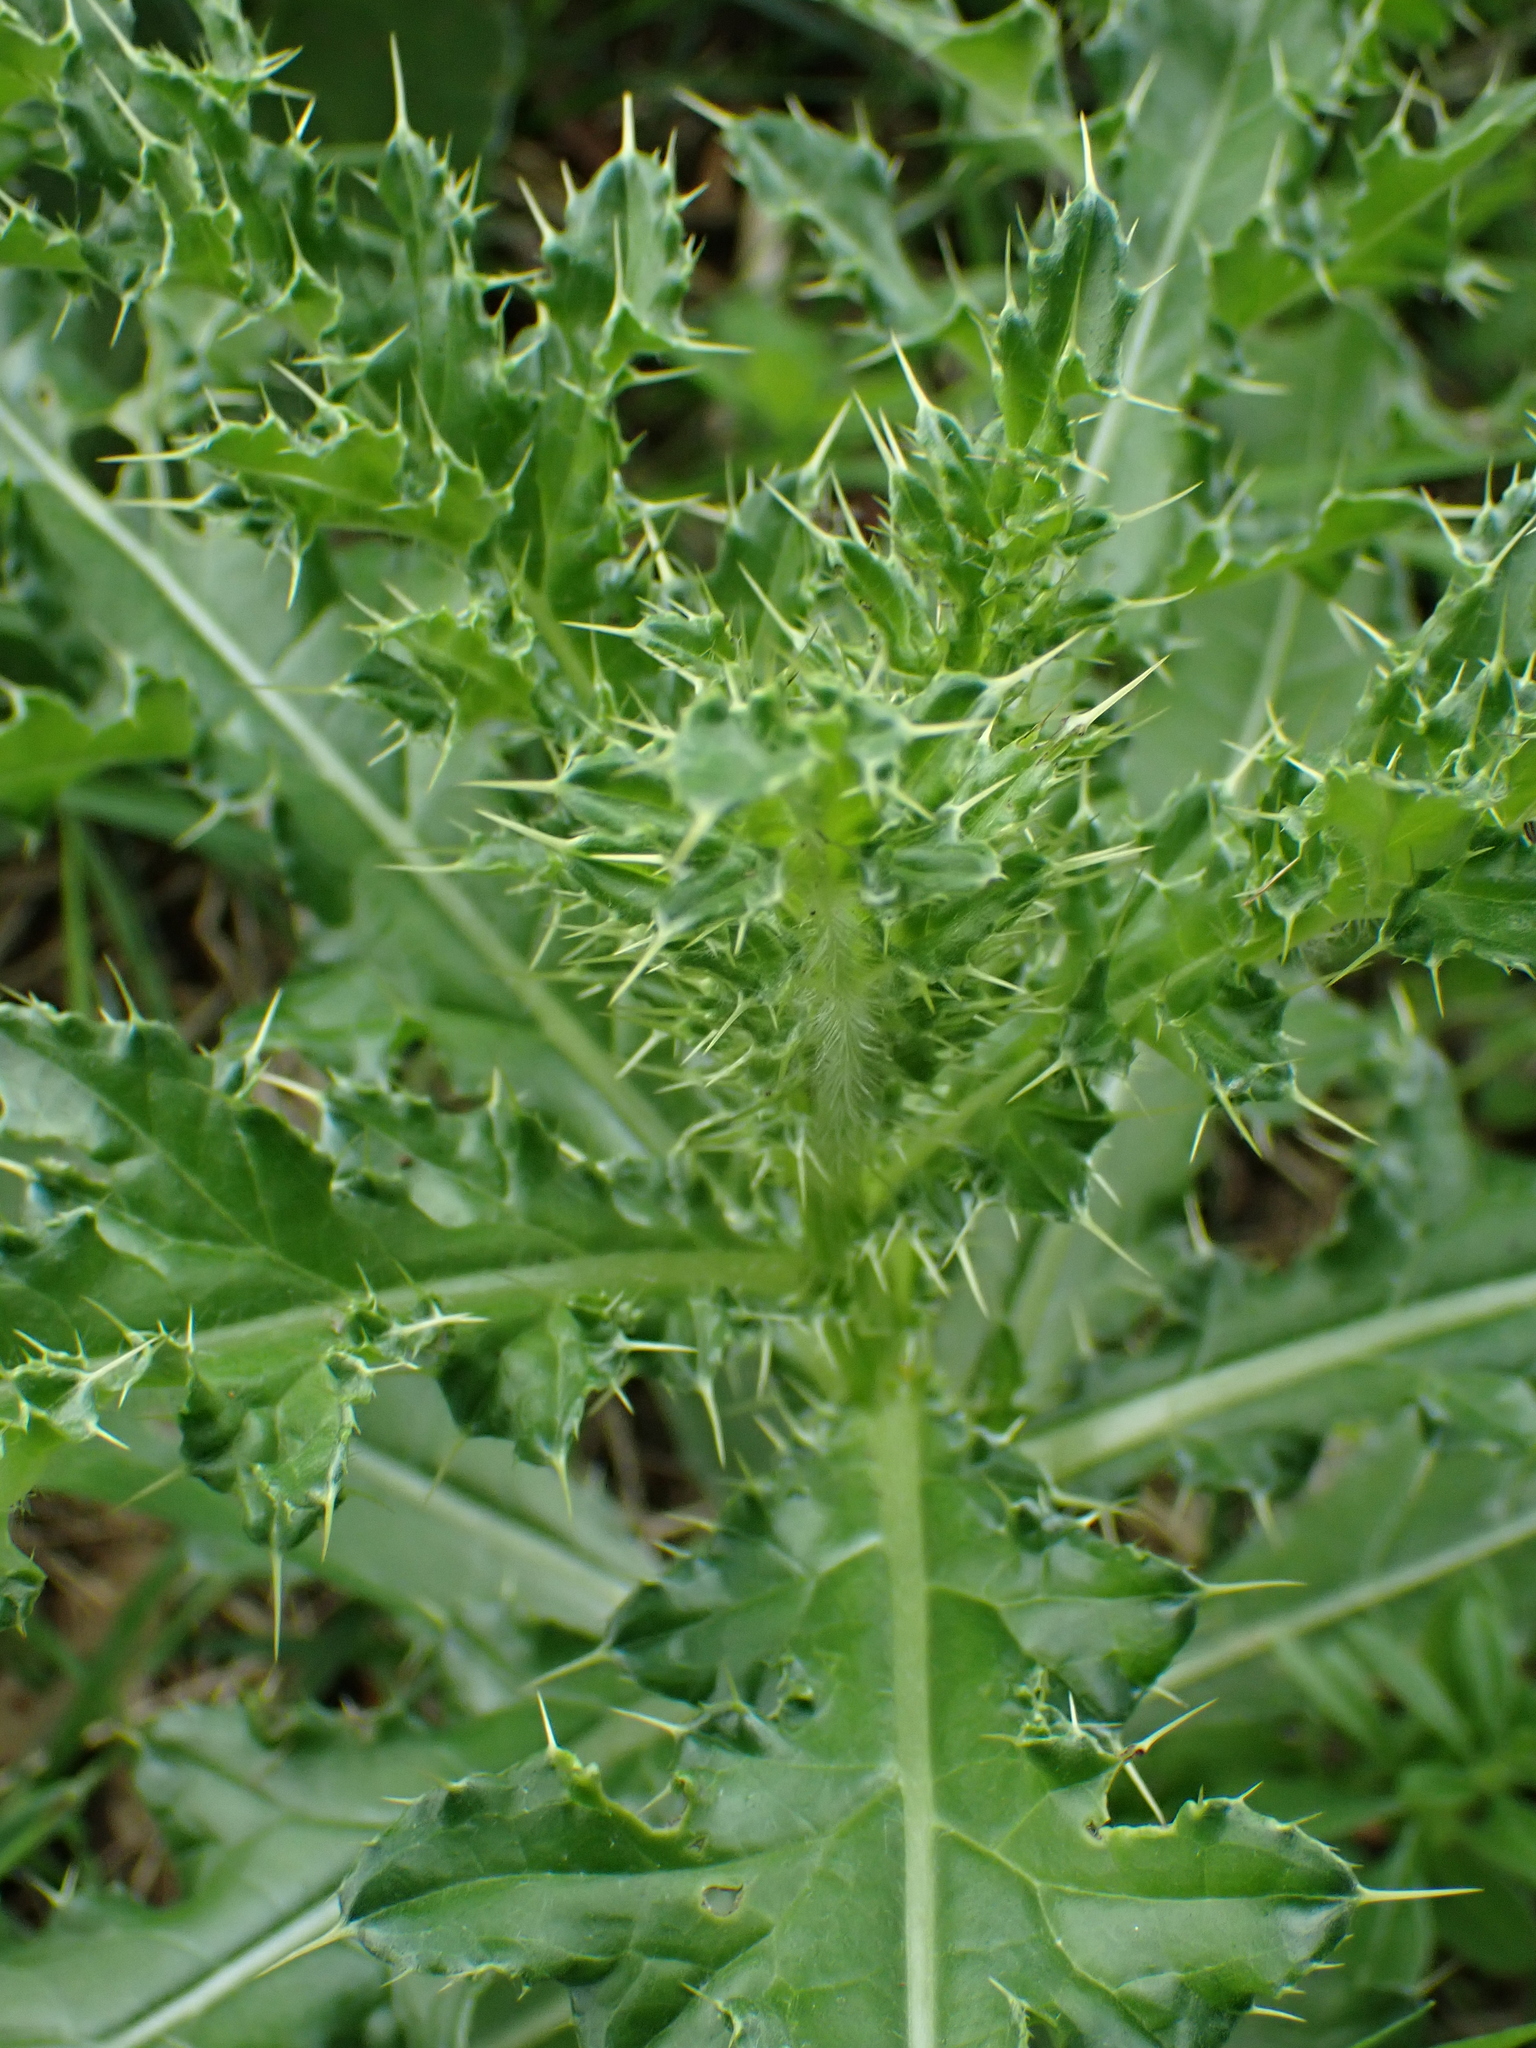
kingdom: Plantae
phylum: Tracheophyta
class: Magnoliopsida
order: Asterales
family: Asteraceae
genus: Cirsium
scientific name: Cirsium arvense
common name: Creeping thistle
